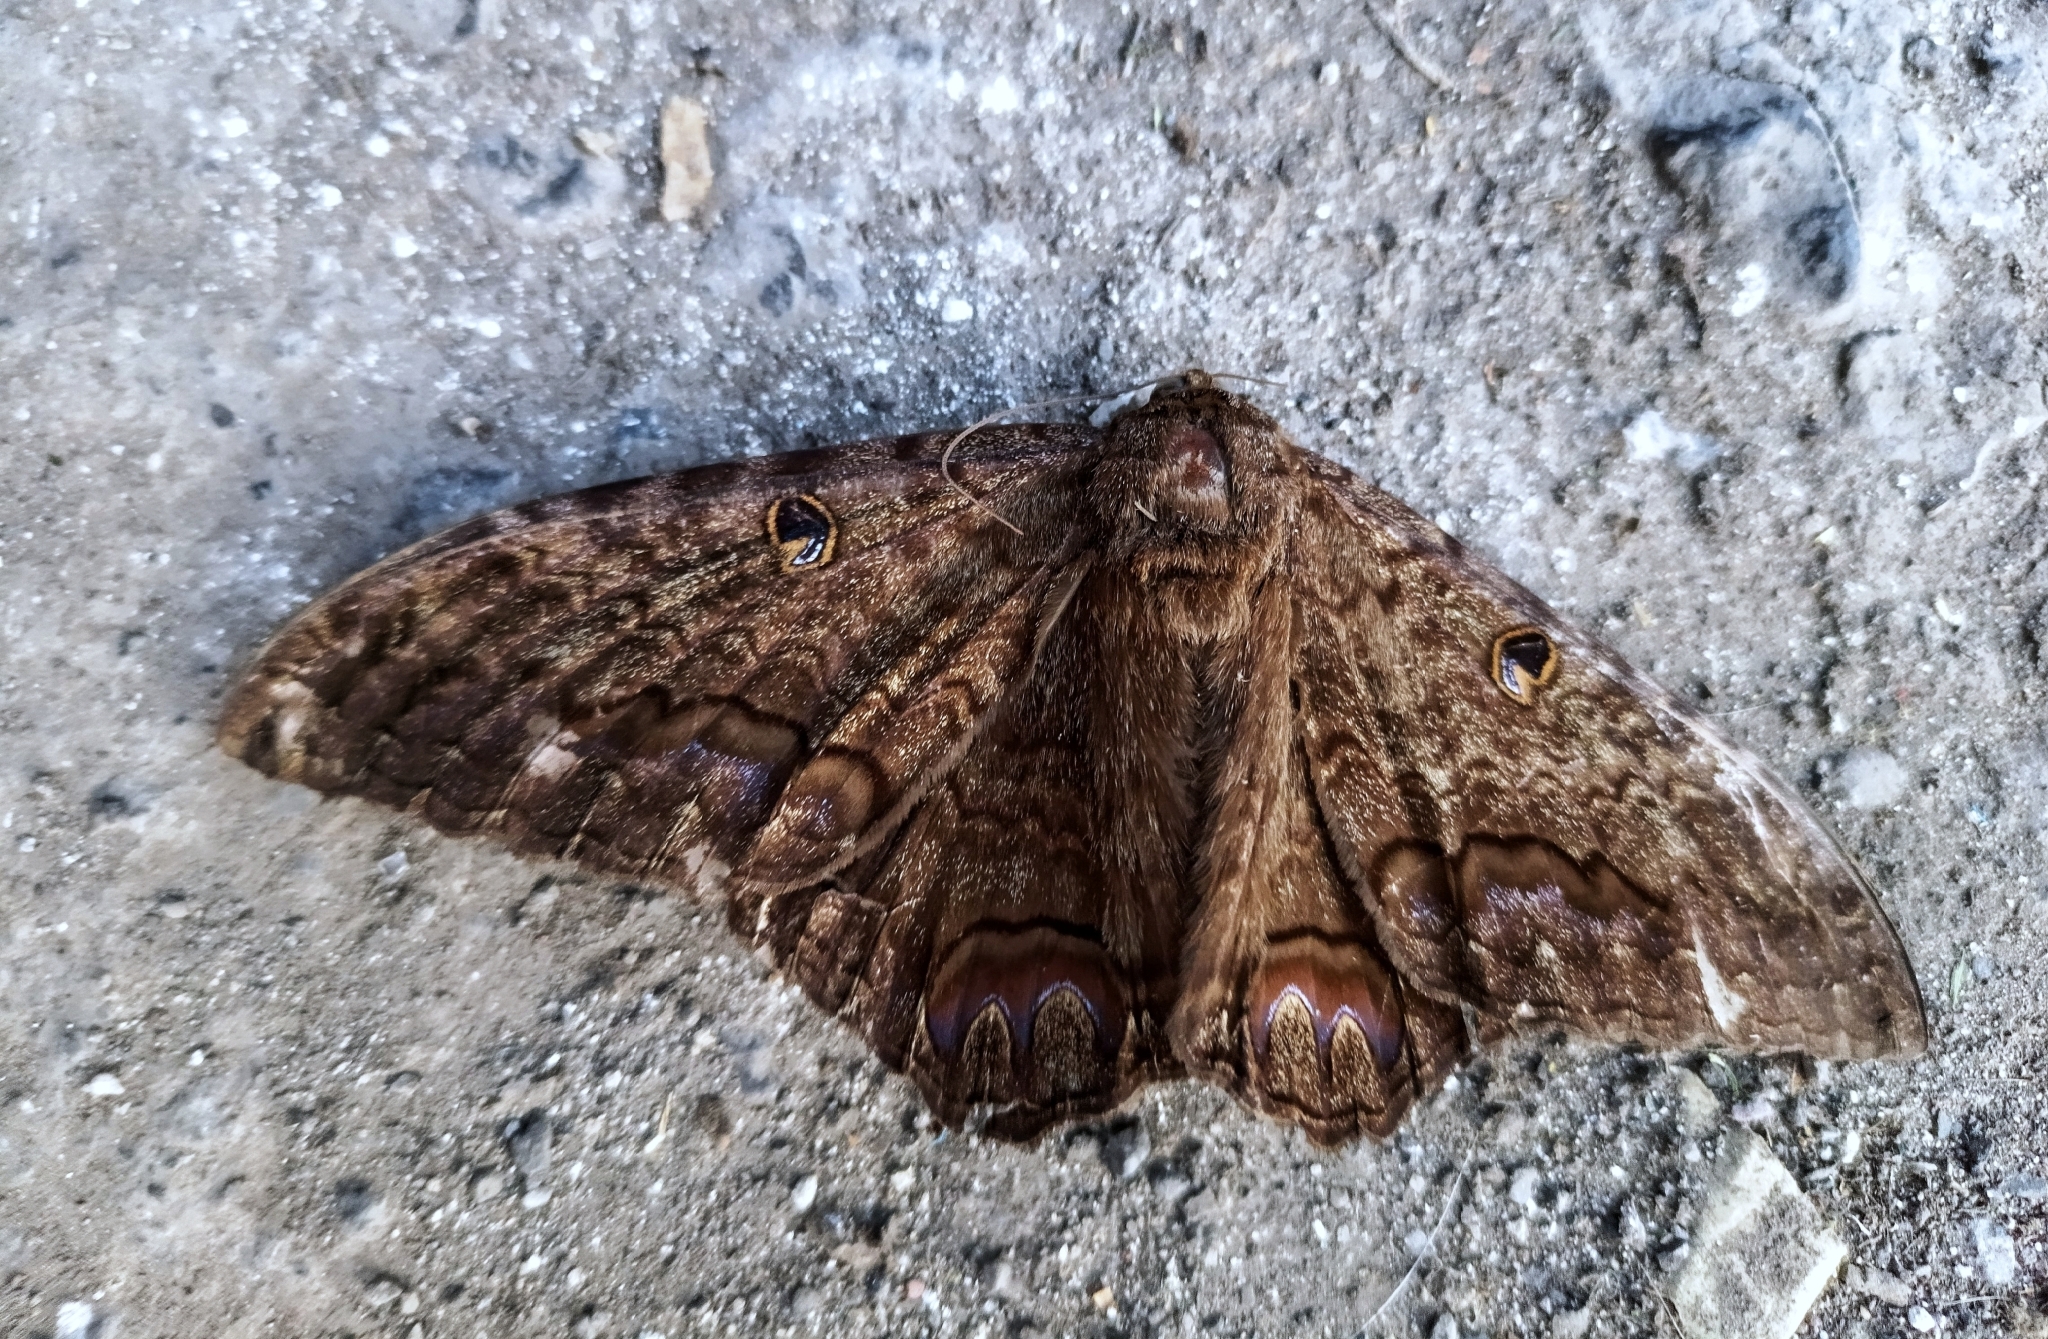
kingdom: Animalia
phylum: Arthropoda
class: Insecta
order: Lepidoptera
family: Erebidae
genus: Ascalapha
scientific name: Ascalapha odorata
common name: Black witch
